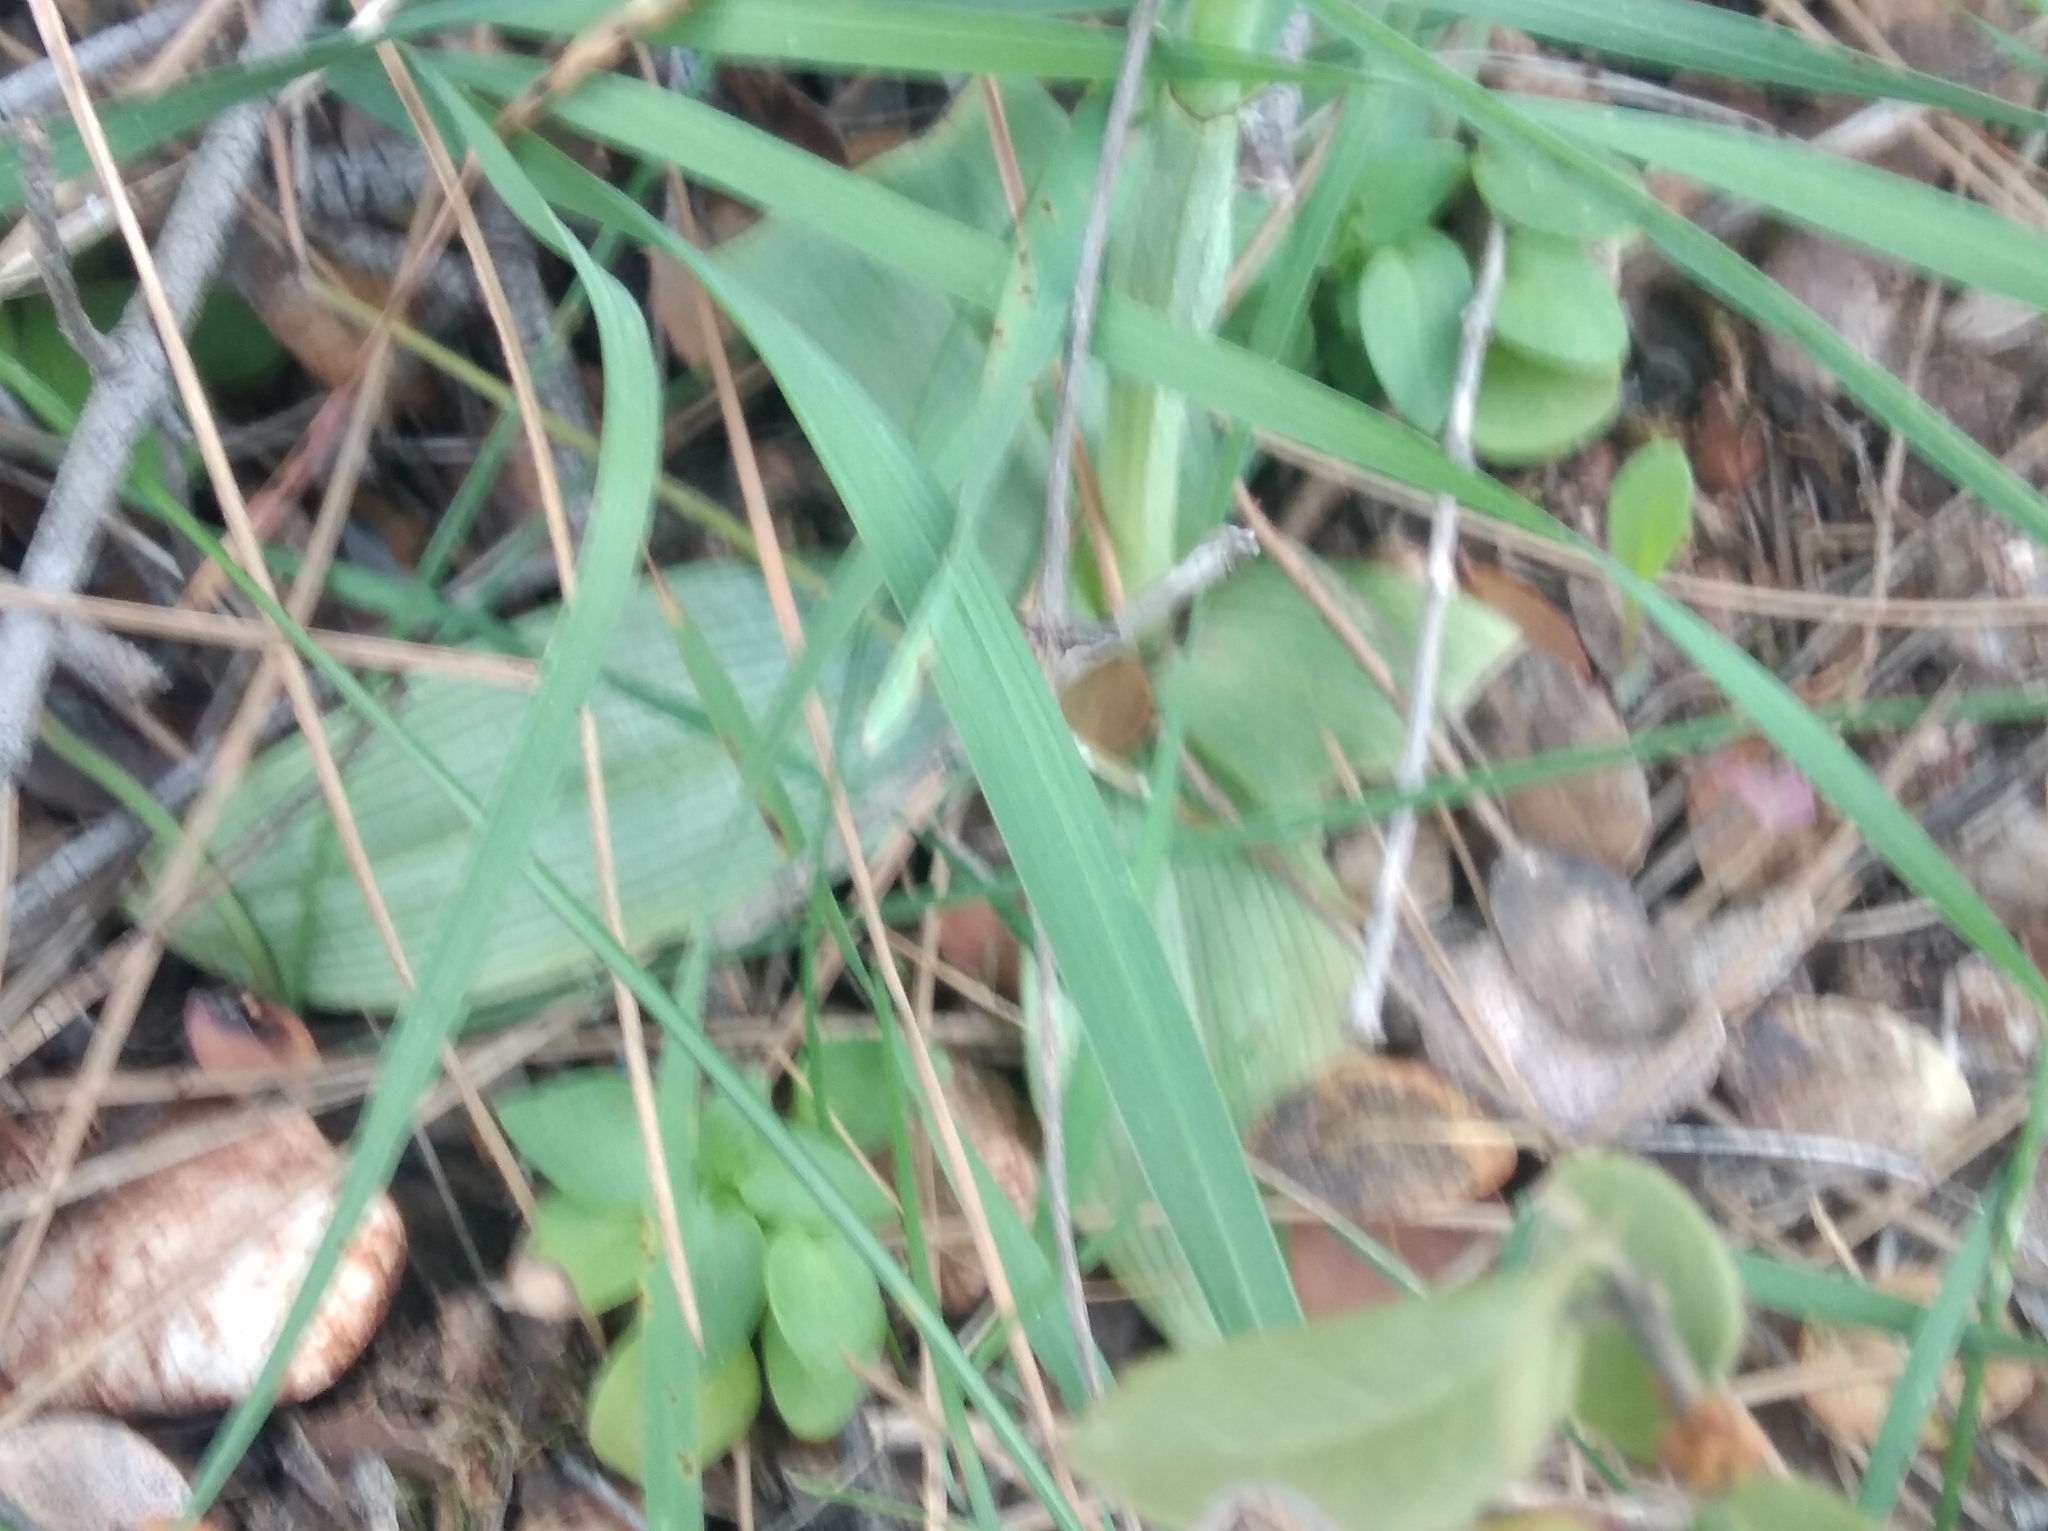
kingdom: Plantae
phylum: Tracheophyta
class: Liliopsida
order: Asparagales
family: Orchidaceae
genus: Ophrys
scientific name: Ophrys ferrum-equinum
